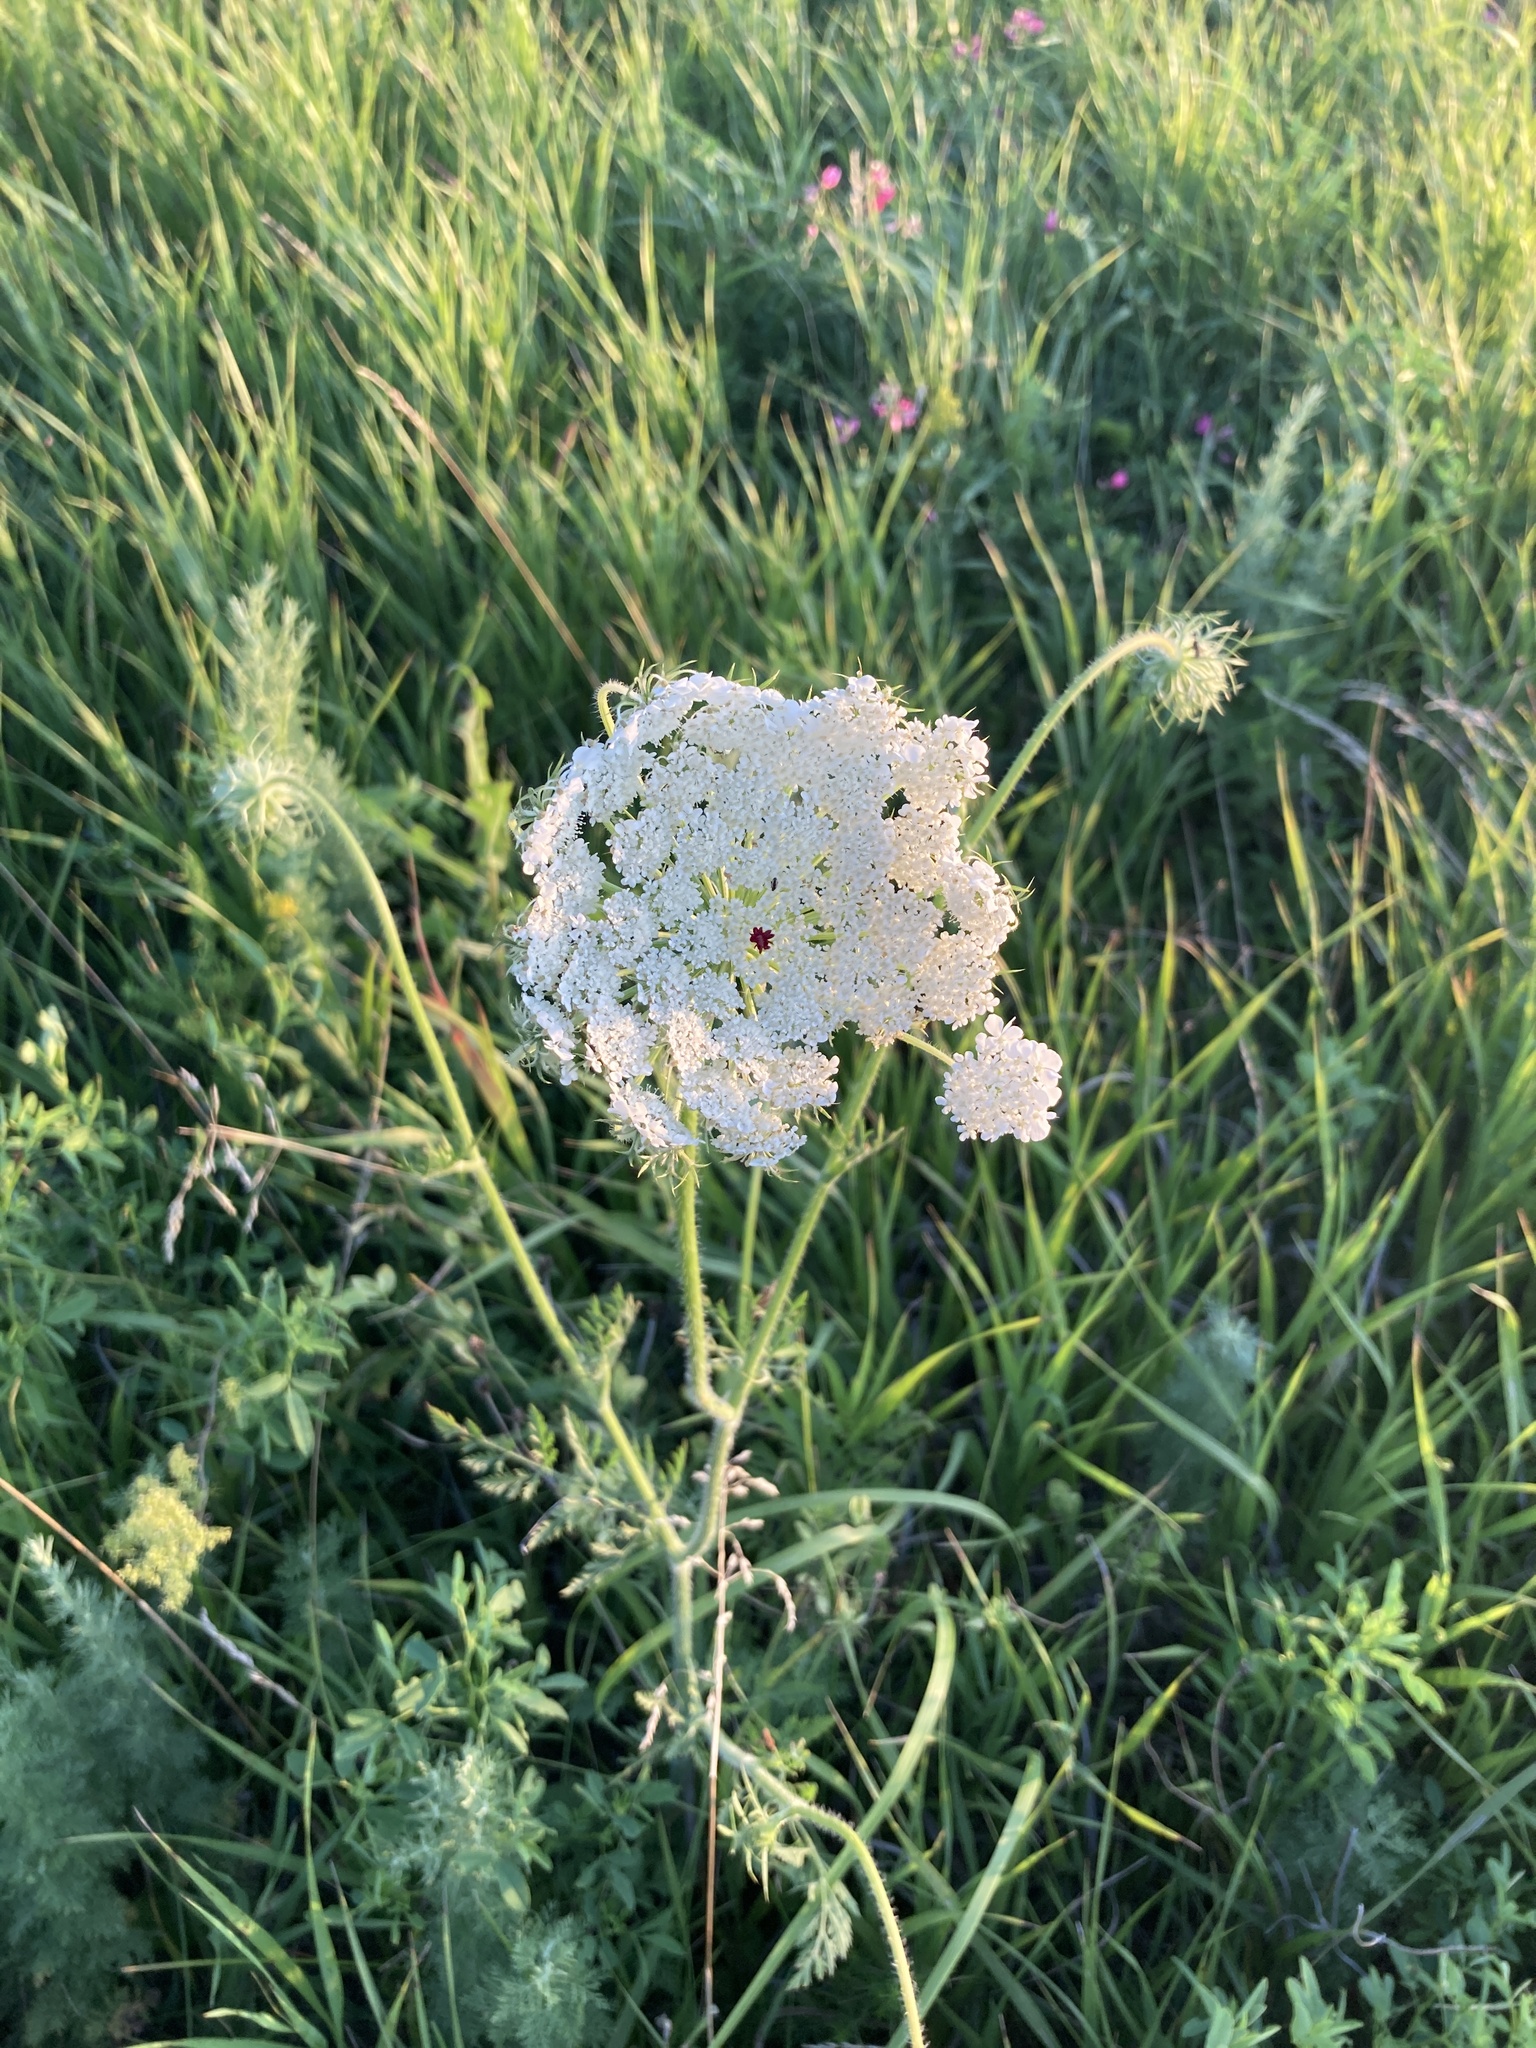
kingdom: Plantae
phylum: Tracheophyta
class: Magnoliopsida
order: Apiales
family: Apiaceae
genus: Daucus
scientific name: Daucus carota
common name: Wild carrot
